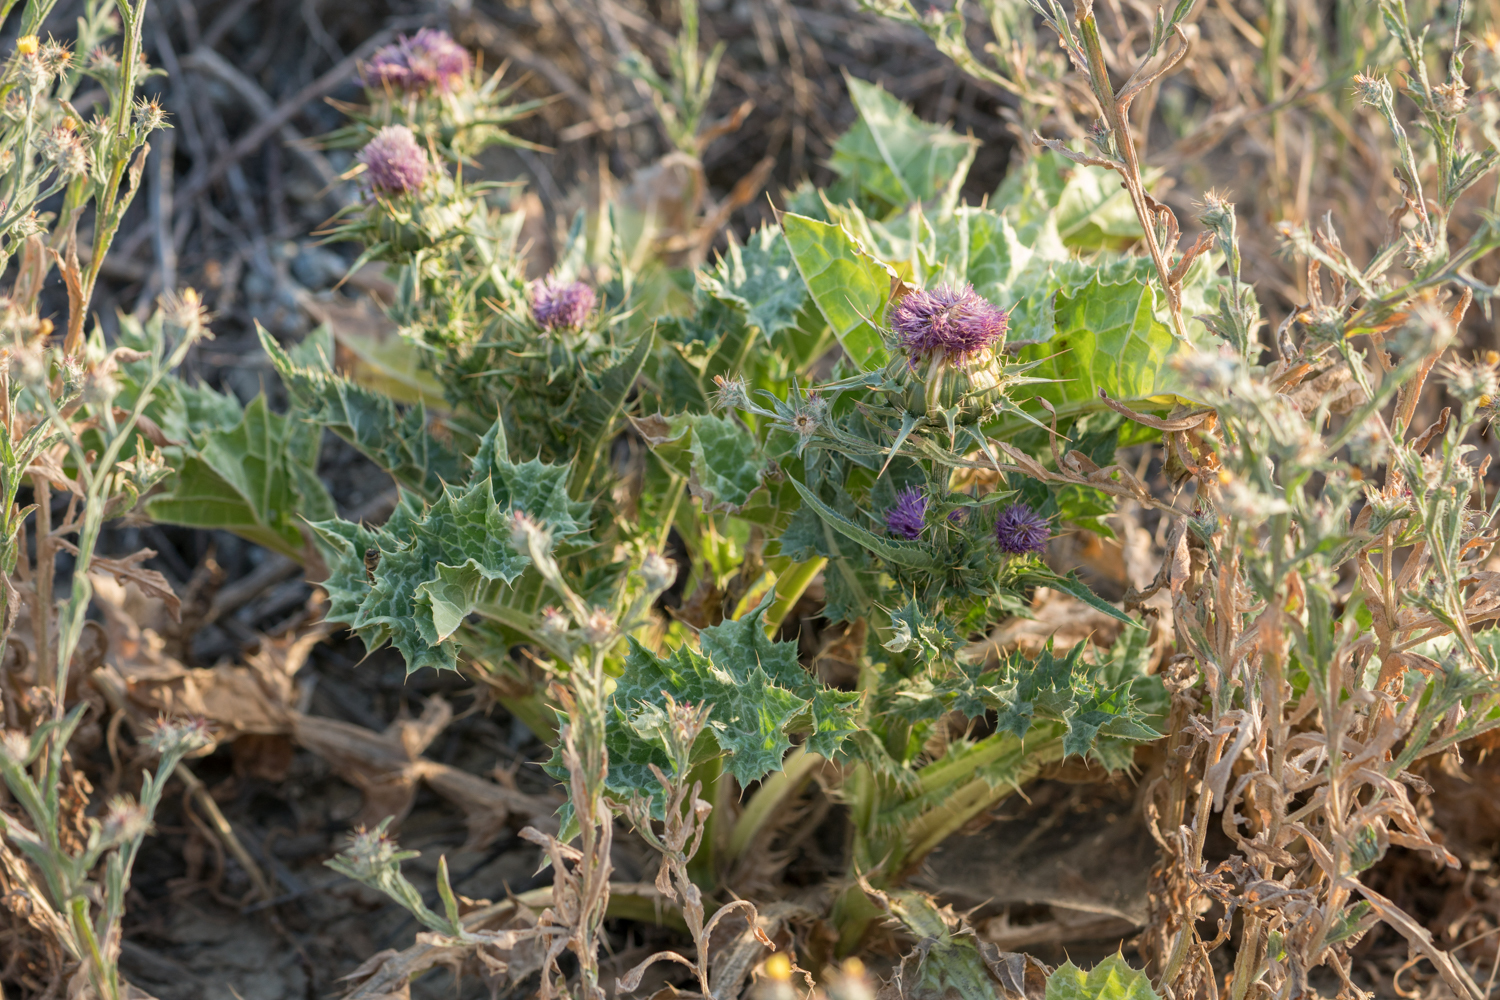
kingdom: Plantae
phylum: Tracheophyta
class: Magnoliopsida
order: Asterales
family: Asteraceae
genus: Silybum
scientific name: Silybum marianum
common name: Milk thistle
